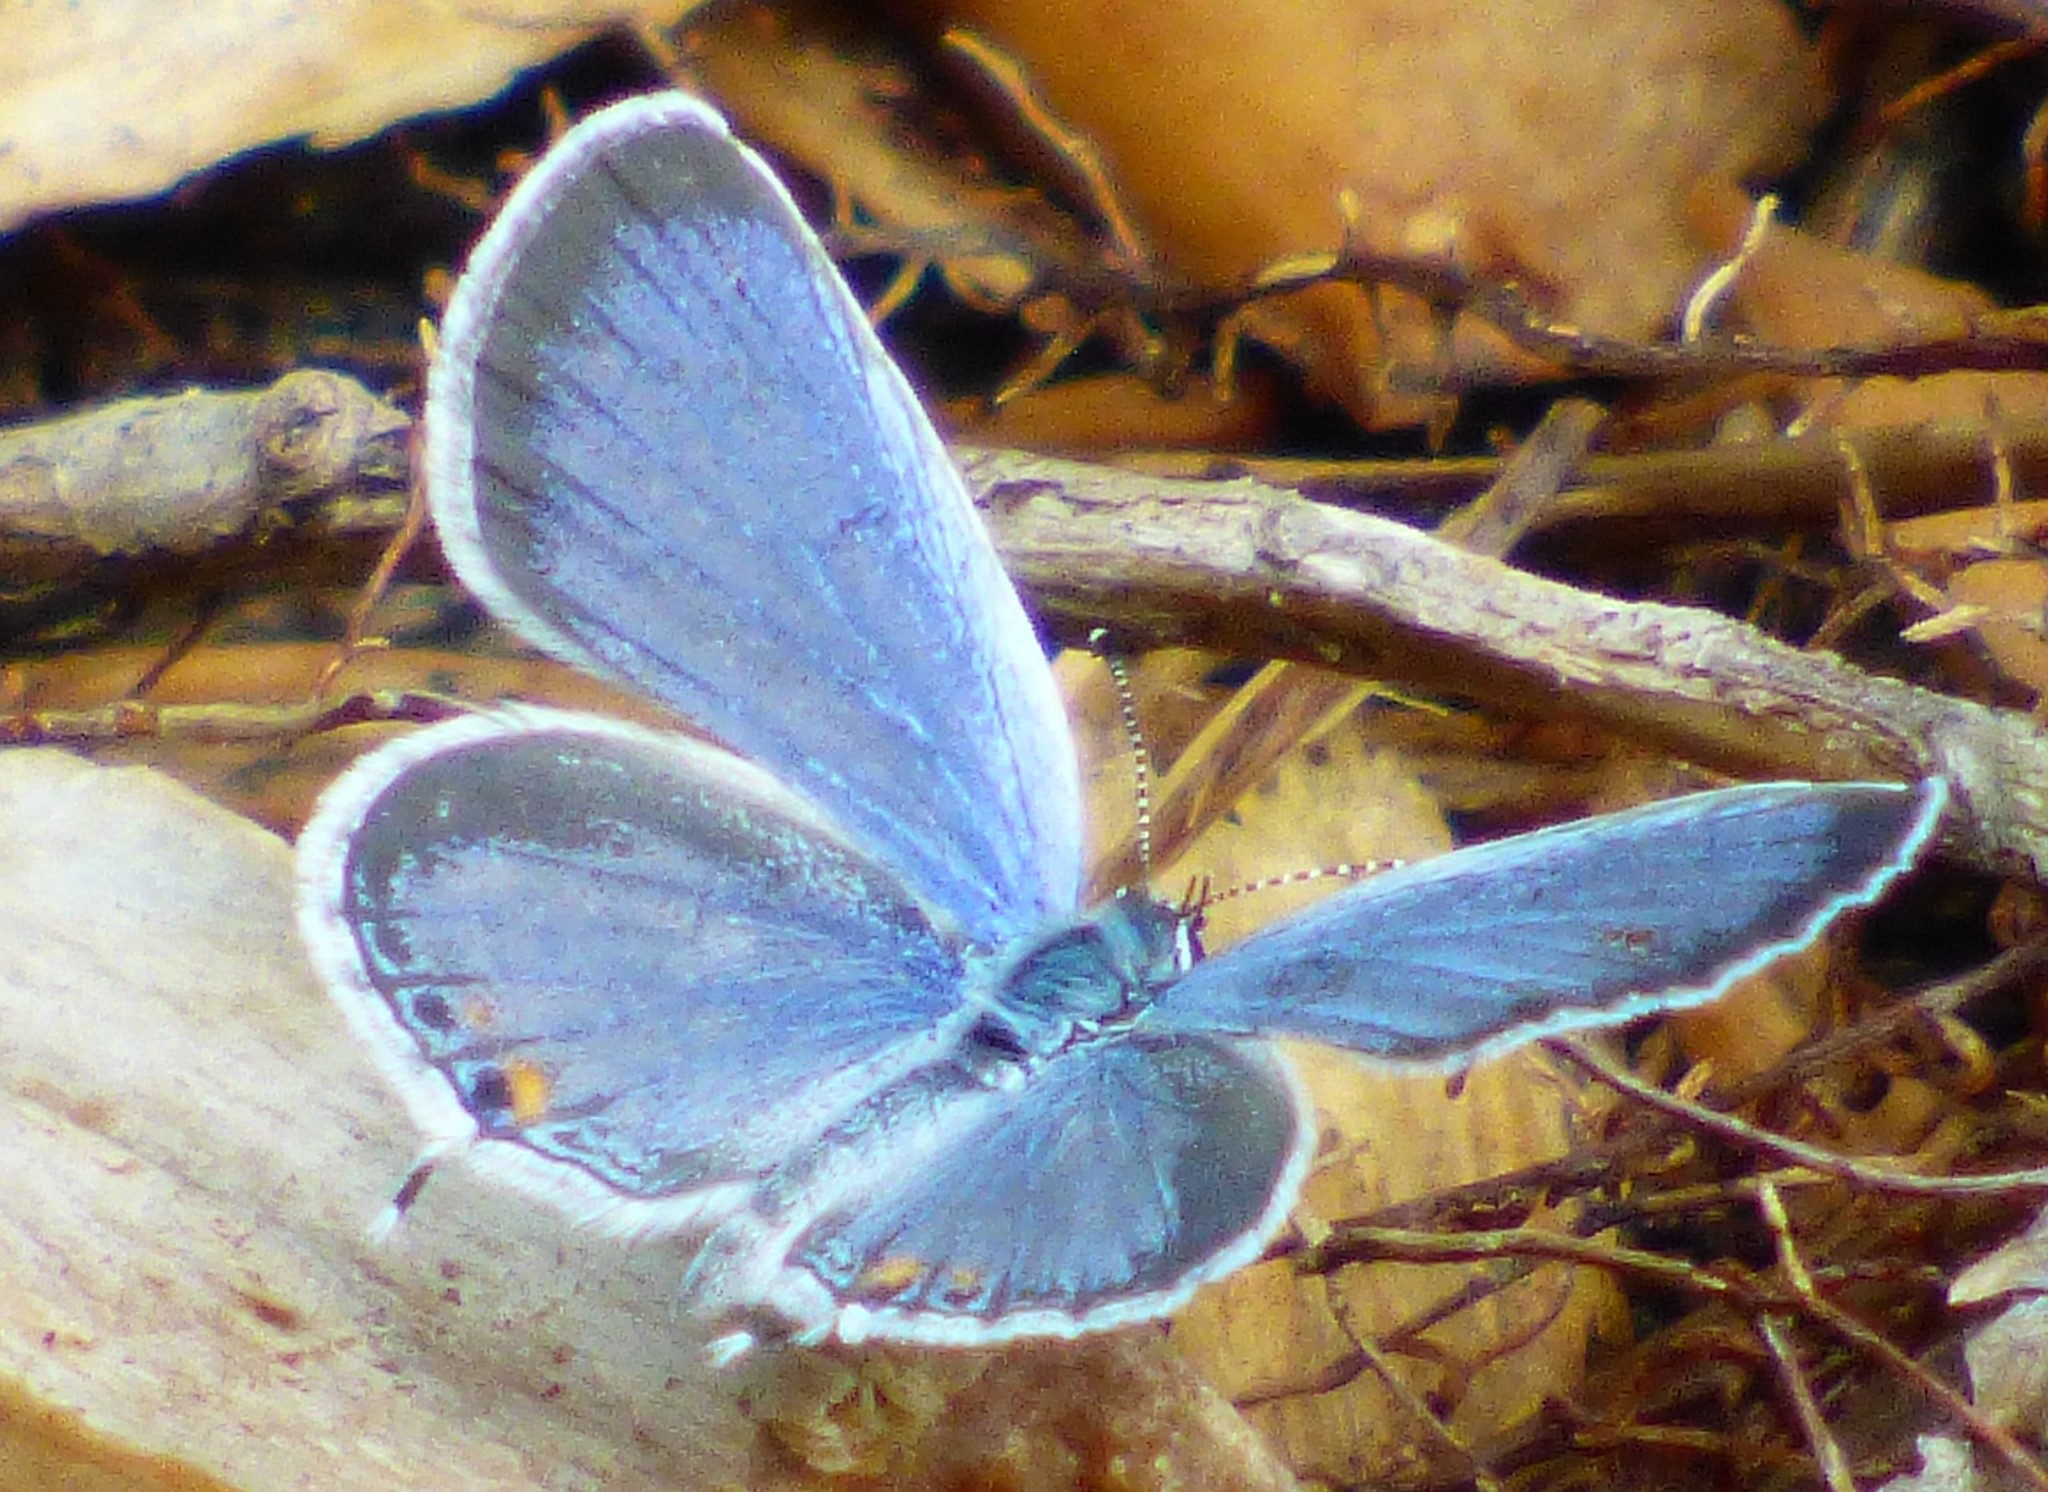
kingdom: Animalia
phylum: Arthropoda
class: Insecta
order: Lepidoptera
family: Lycaenidae
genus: Elkalyce
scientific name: Elkalyce comyntas
